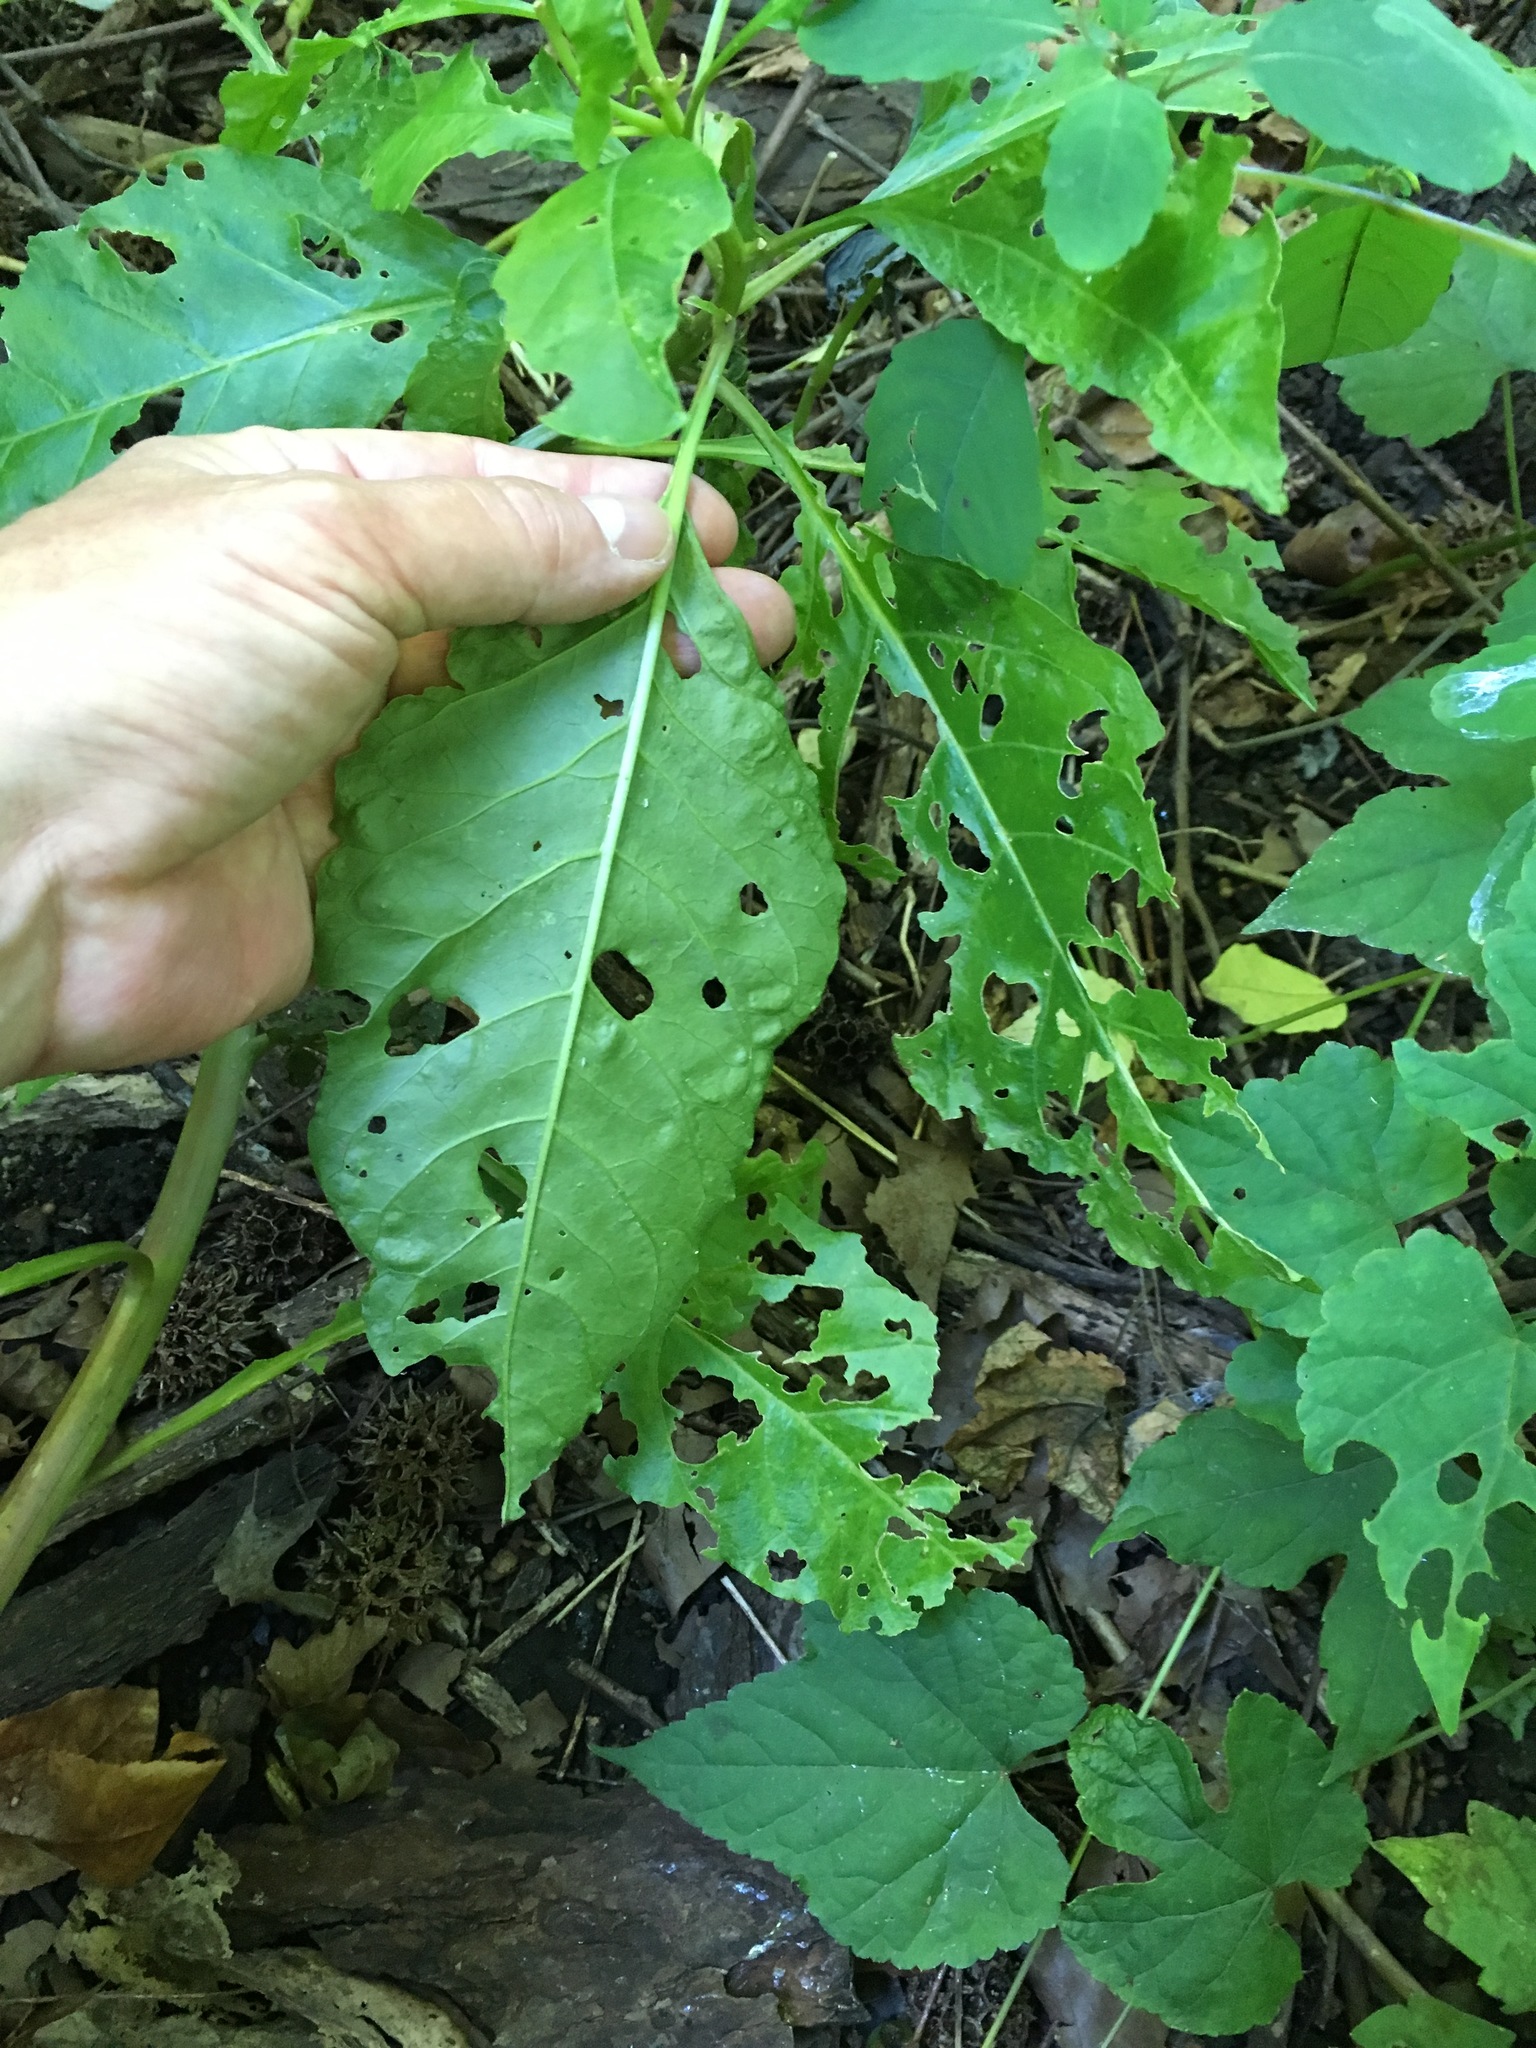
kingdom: Plantae
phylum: Tracheophyta
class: Magnoliopsida
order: Caryophyllales
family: Phytolaccaceae
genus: Phytolacca
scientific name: Phytolacca americana
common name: American pokeweed
